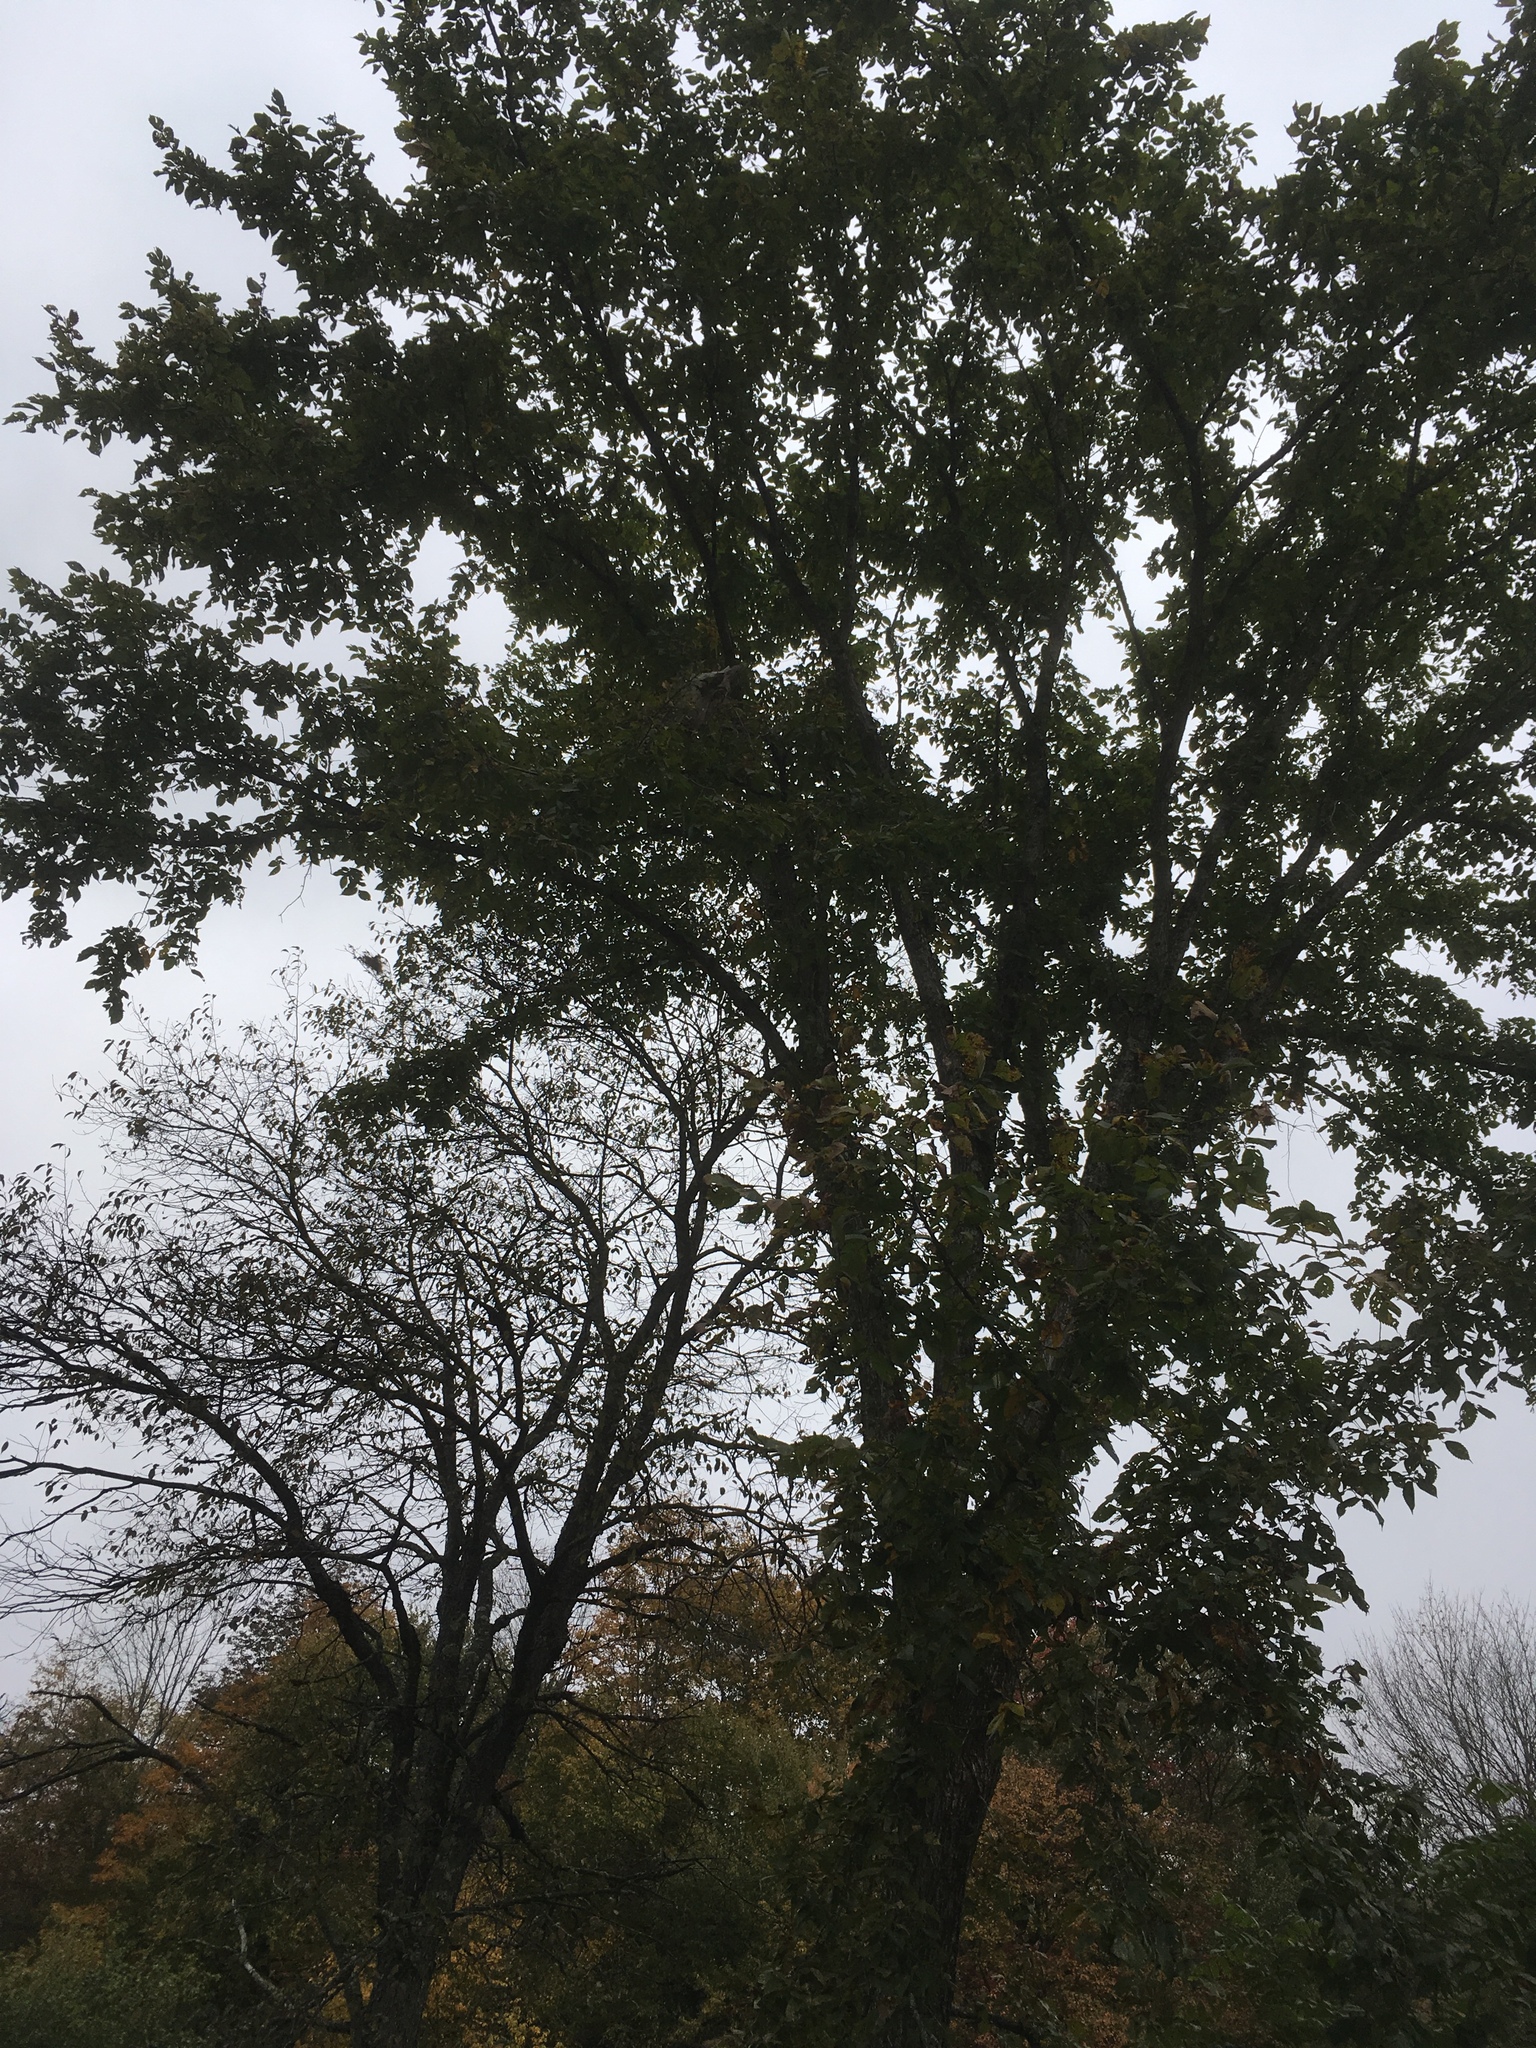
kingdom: Plantae
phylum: Tracheophyta
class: Magnoliopsida
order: Rosales
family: Ulmaceae
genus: Ulmus
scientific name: Ulmus americana
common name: American elm
